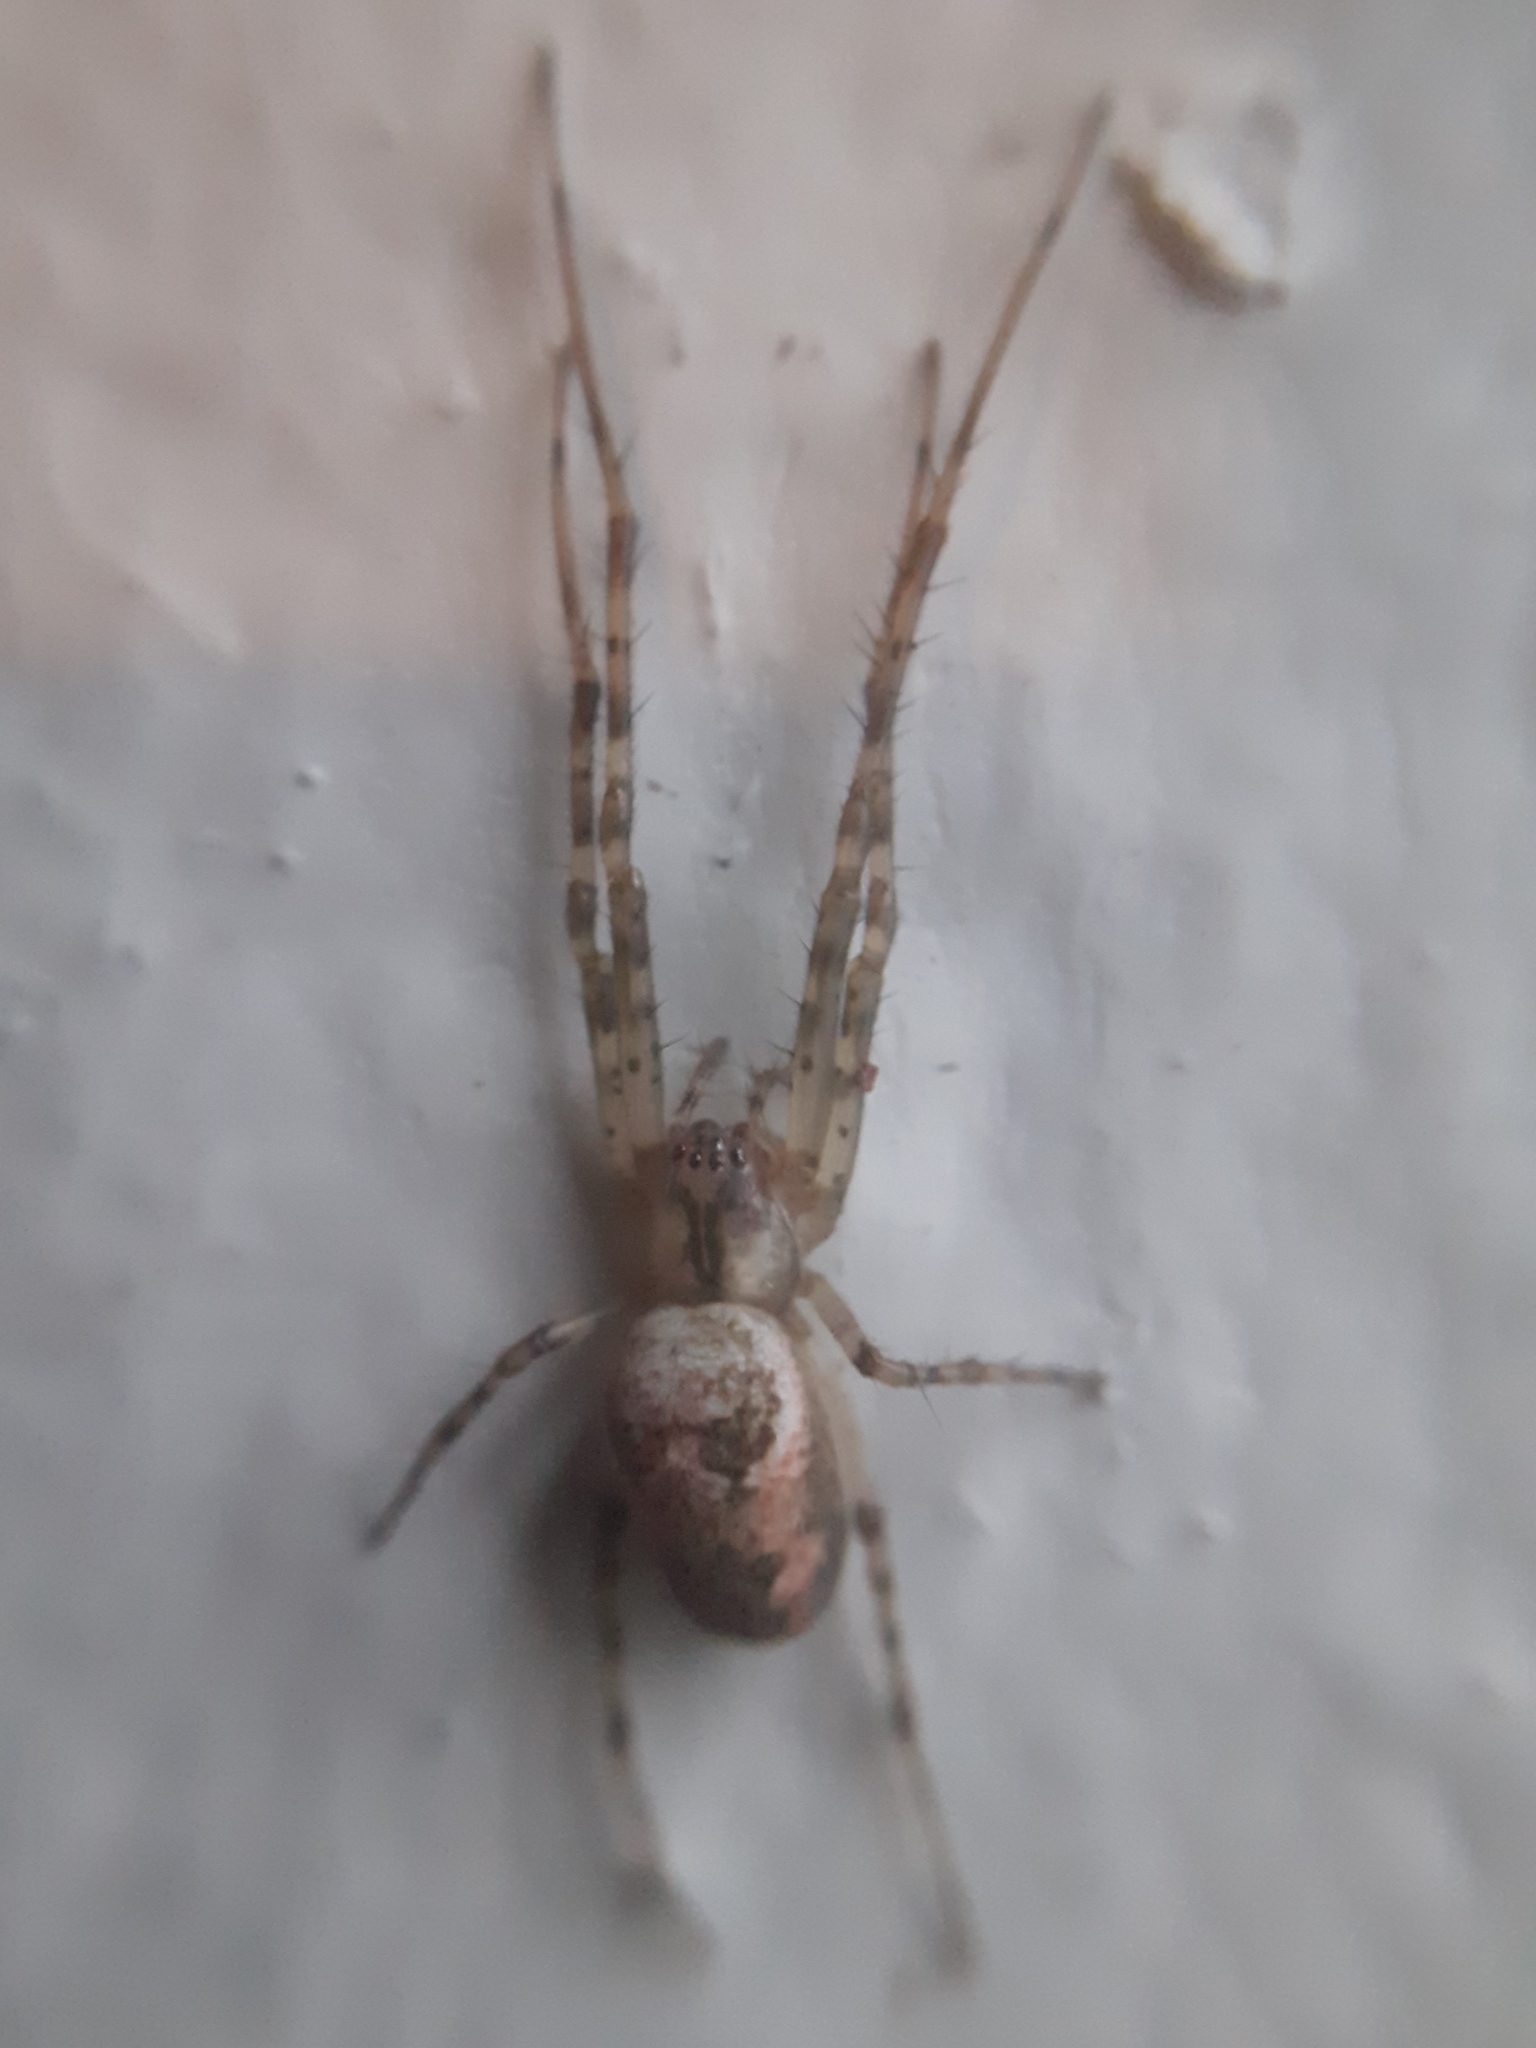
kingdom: Animalia
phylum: Arthropoda
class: Arachnida
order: Araneae
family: Tetragnathidae
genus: Metellina
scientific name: Metellina segmentata
